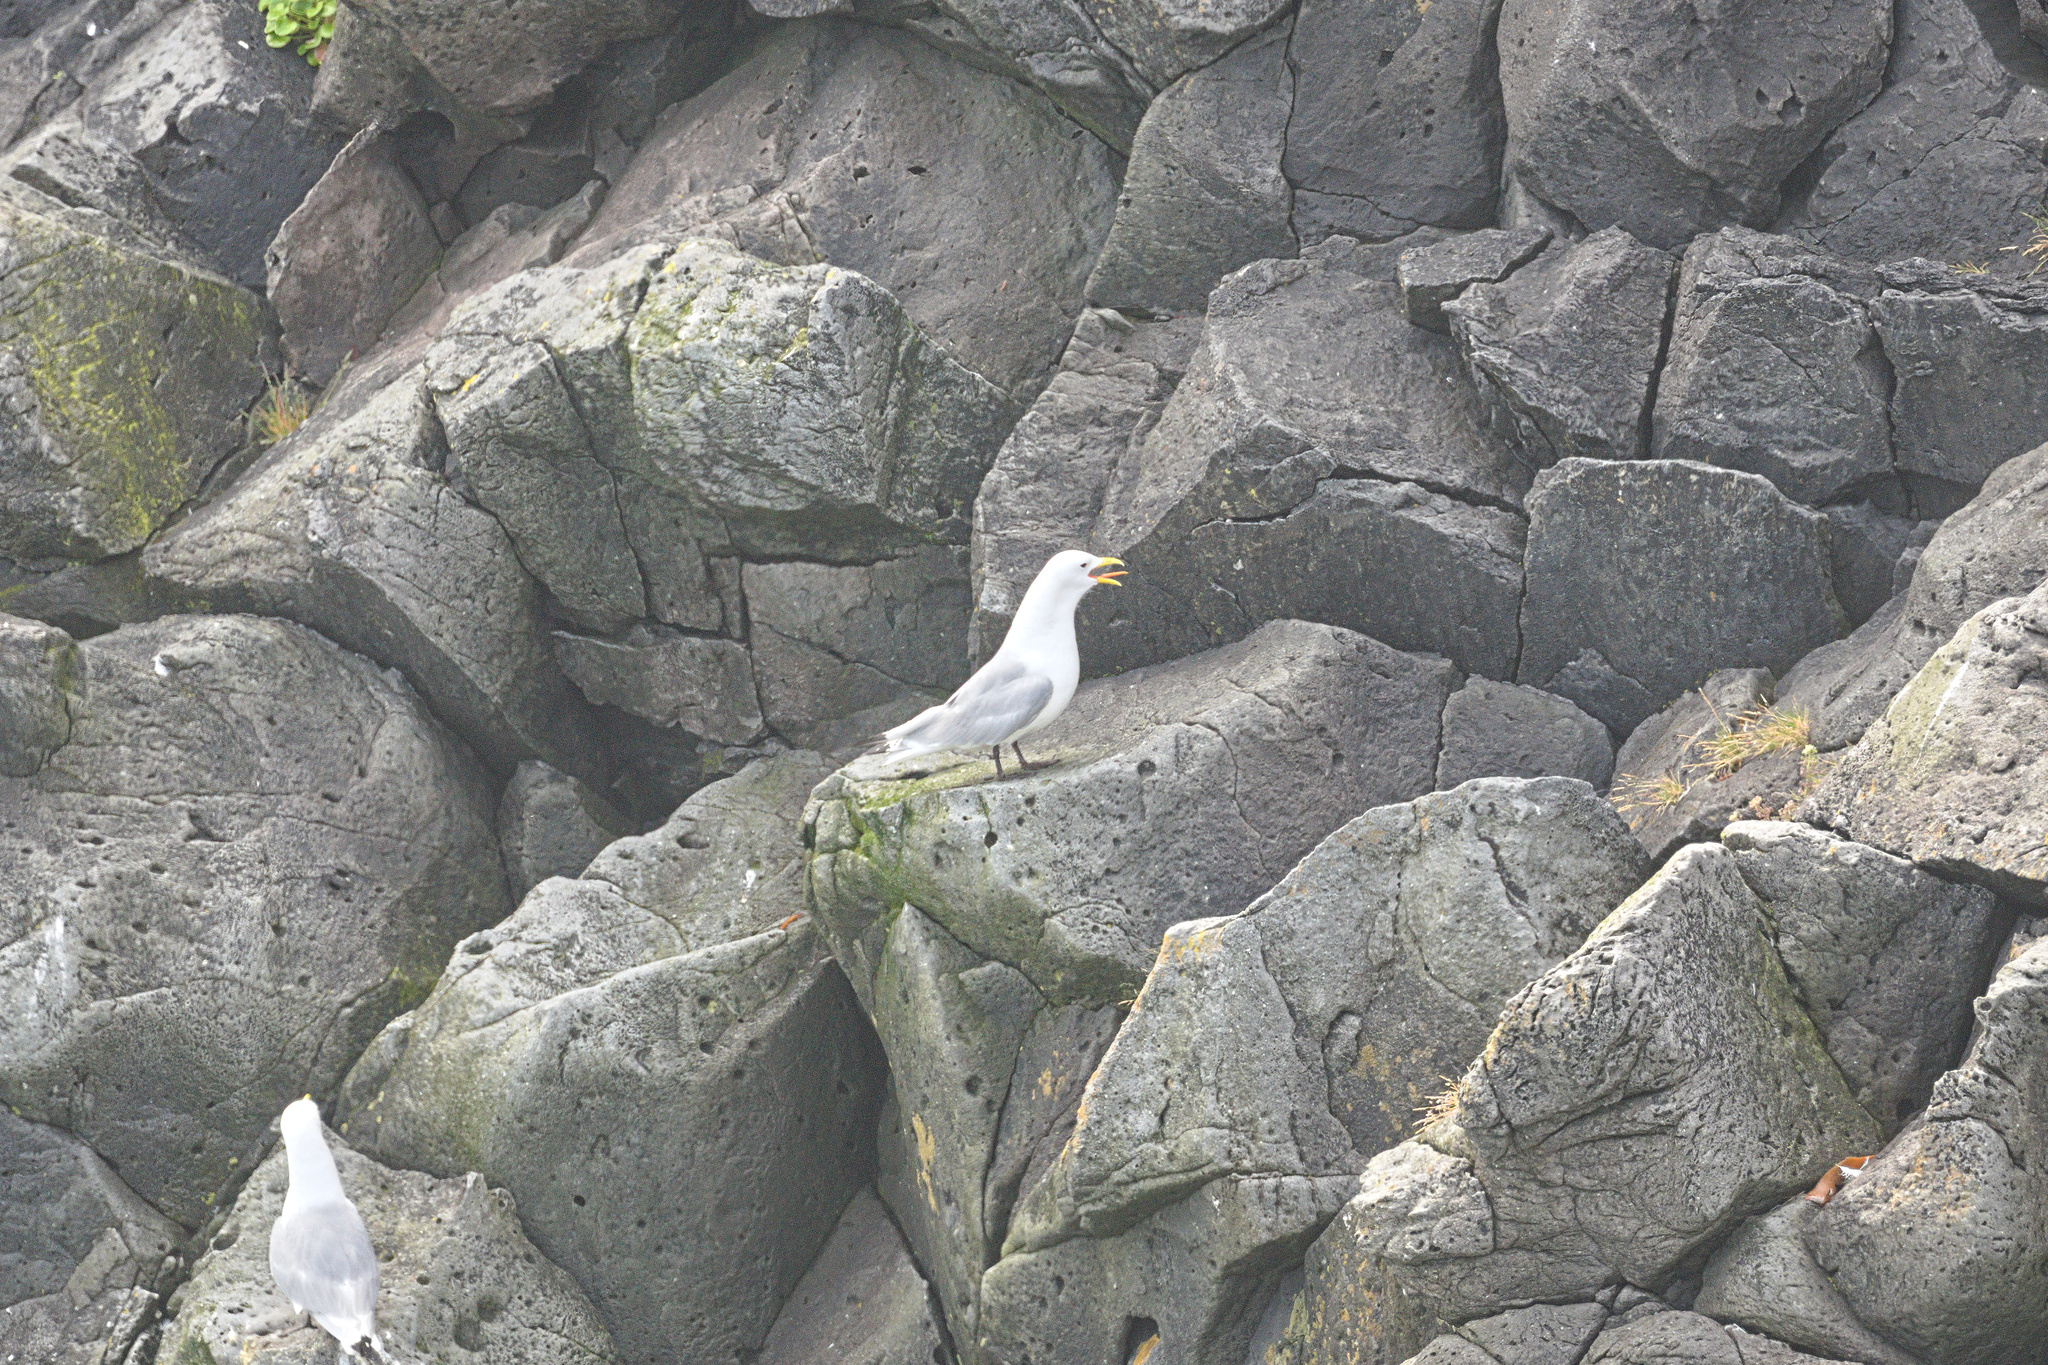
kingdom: Animalia
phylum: Chordata
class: Aves
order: Charadriiformes
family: Laridae
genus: Rissa
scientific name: Rissa tridactyla
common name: Black-legged kittiwake
